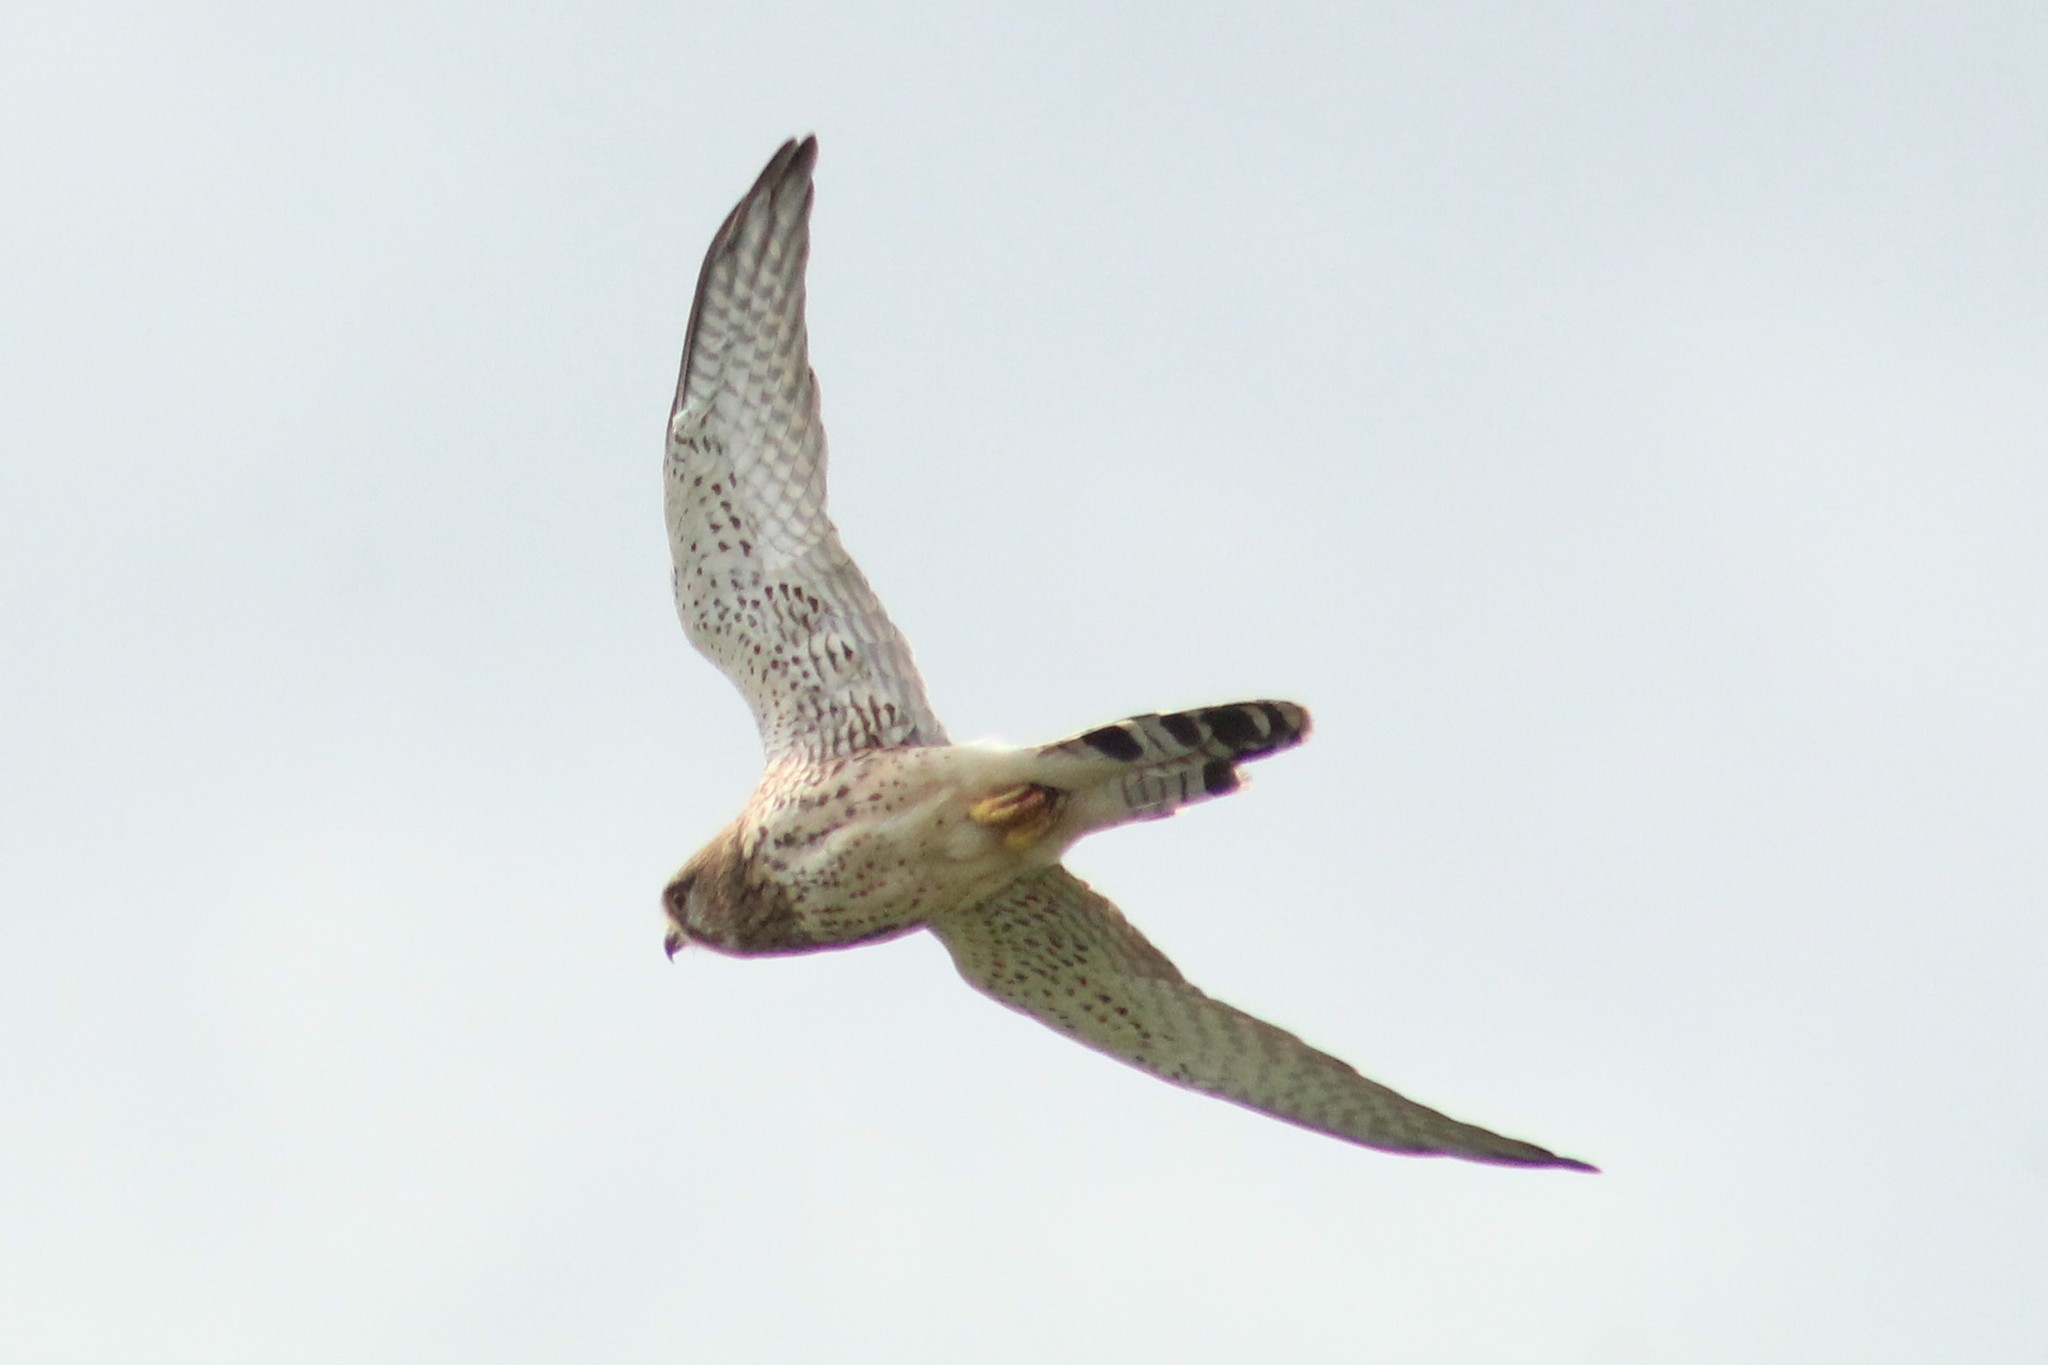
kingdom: Animalia
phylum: Chordata
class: Aves
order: Falconiformes
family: Falconidae
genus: Falco
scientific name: Falco tinnunculus
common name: Common kestrel
